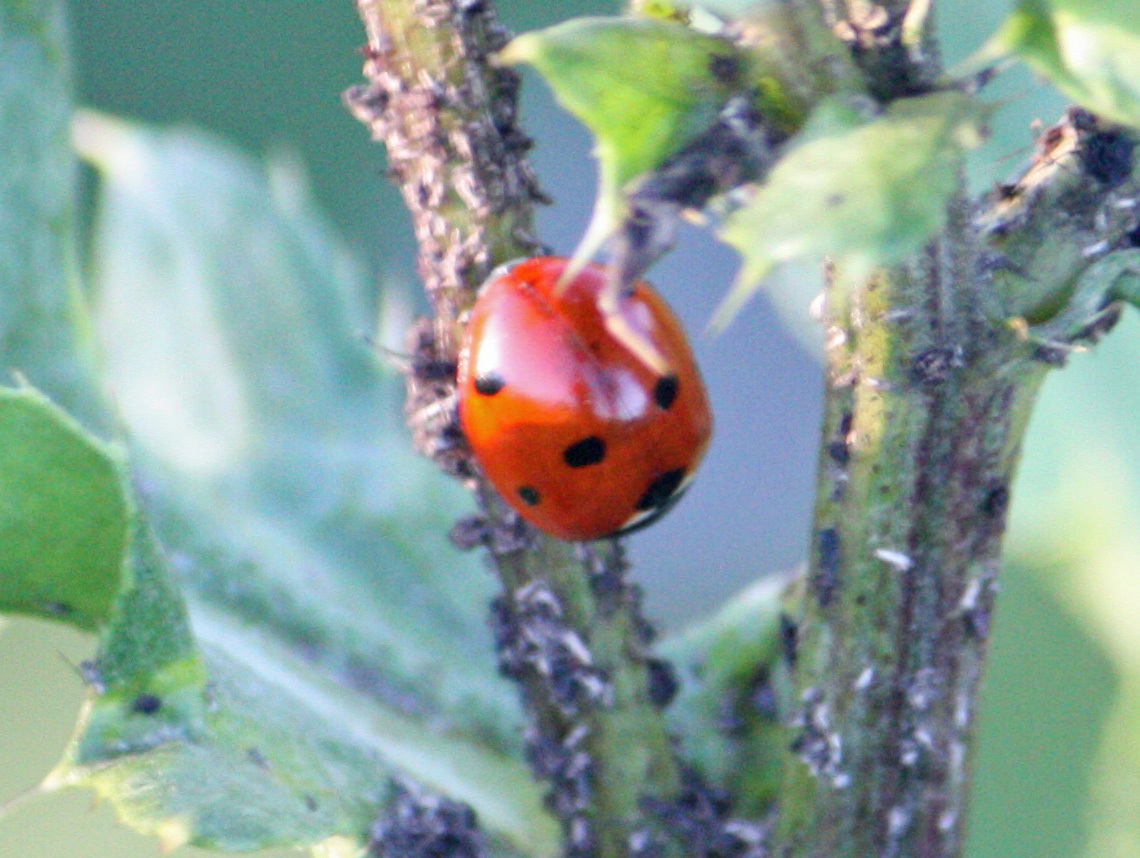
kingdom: Animalia
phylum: Arthropoda
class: Insecta
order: Coleoptera
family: Coccinellidae
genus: Coccinella
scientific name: Coccinella septempunctata
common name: Sevenspotted lady beetle
